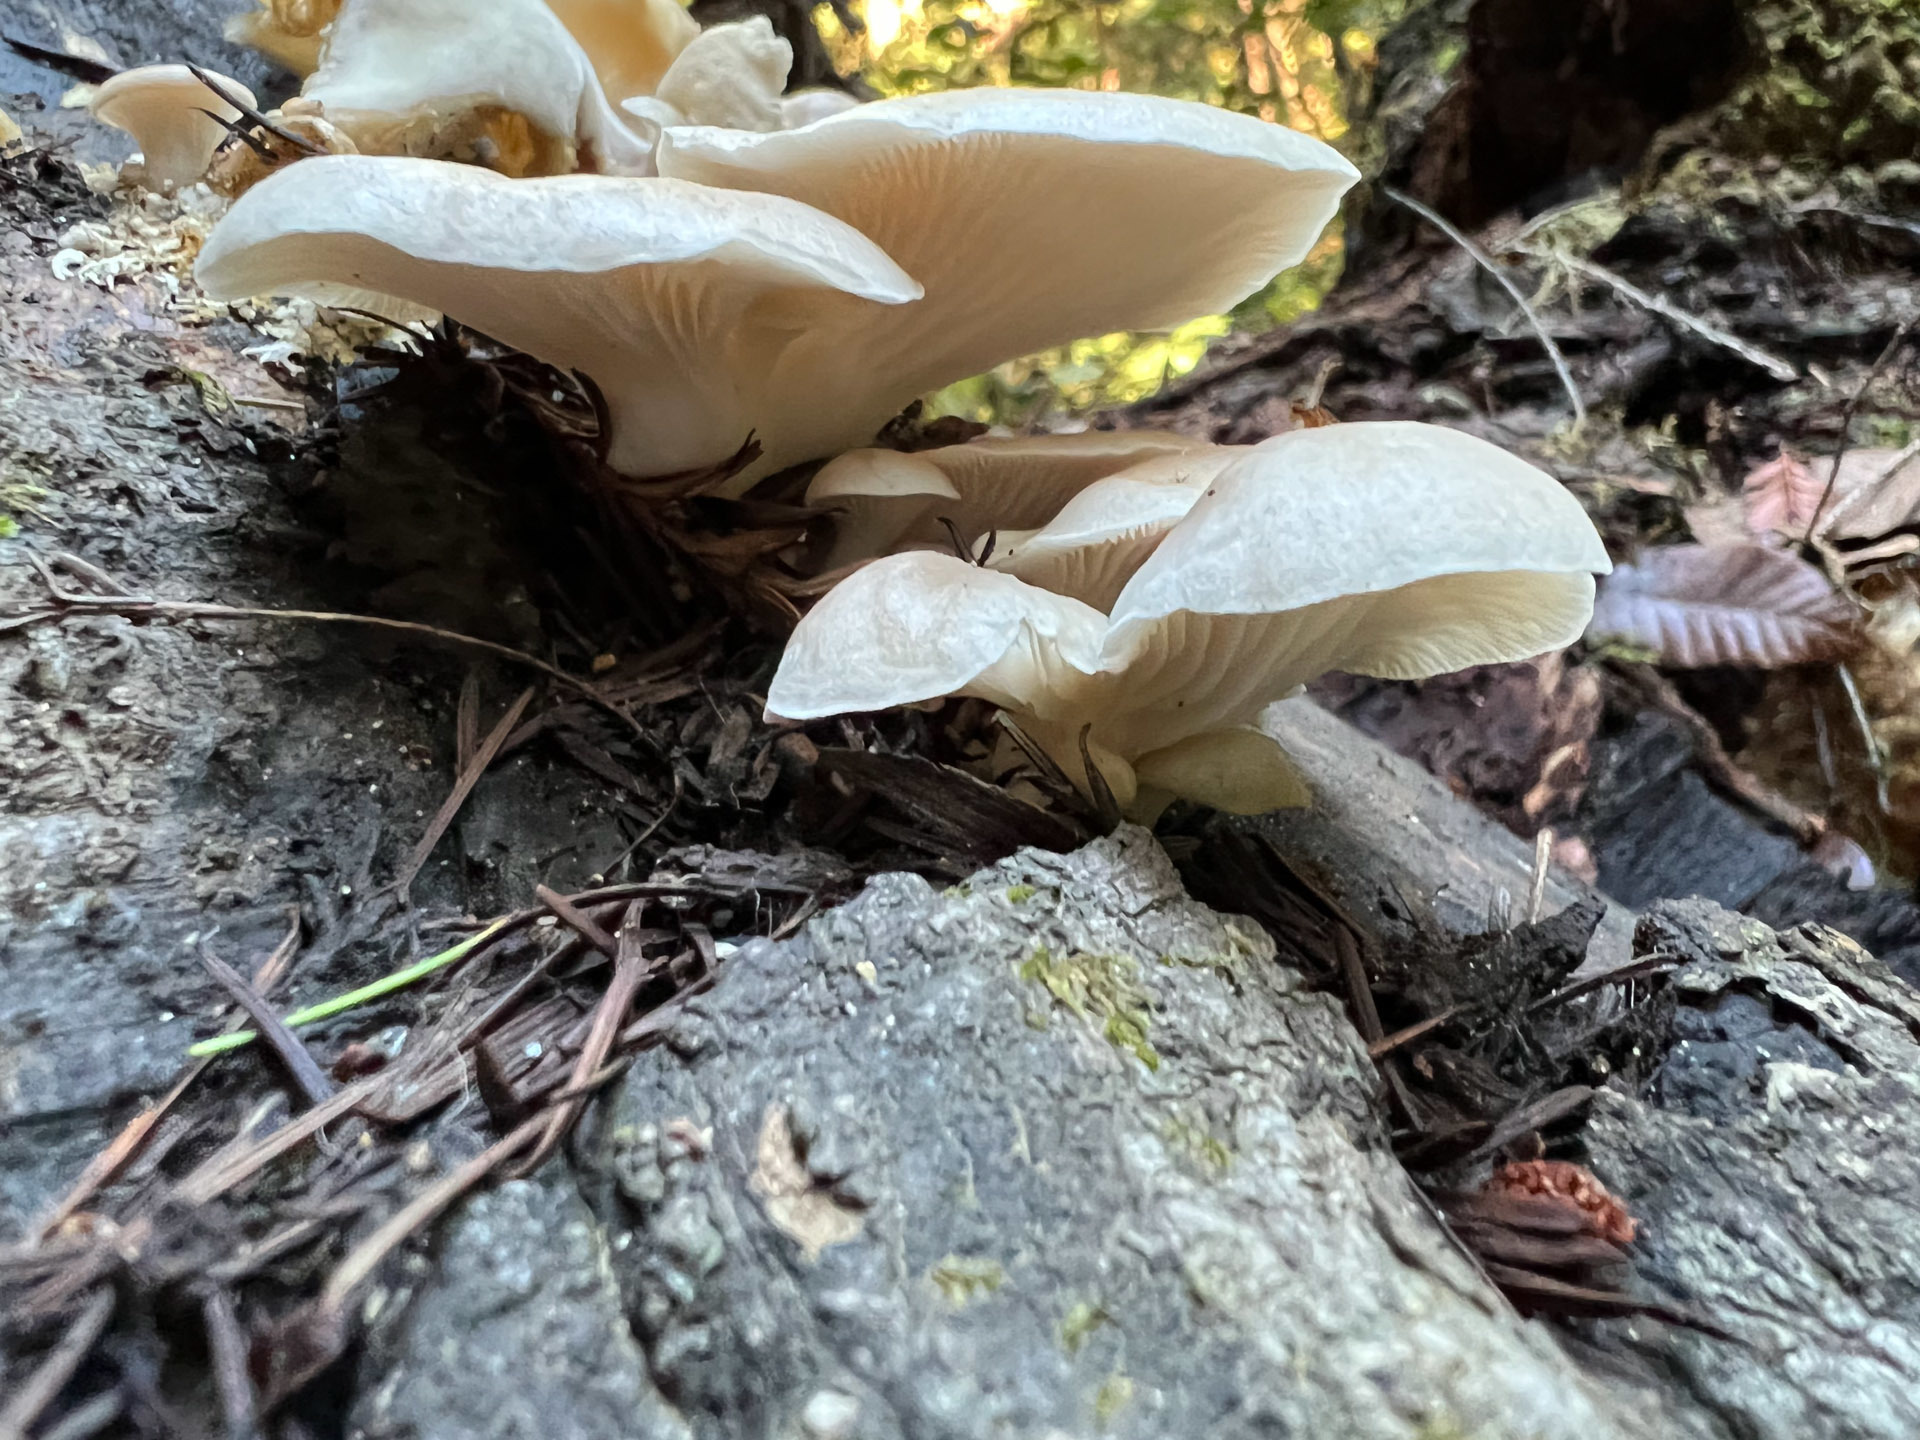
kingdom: Fungi
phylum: Basidiomycota
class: Agaricomycetes
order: Agaricales
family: Pleurotaceae
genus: Pleurotus
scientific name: Pleurotus ostreatus
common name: Oyster mushroom
